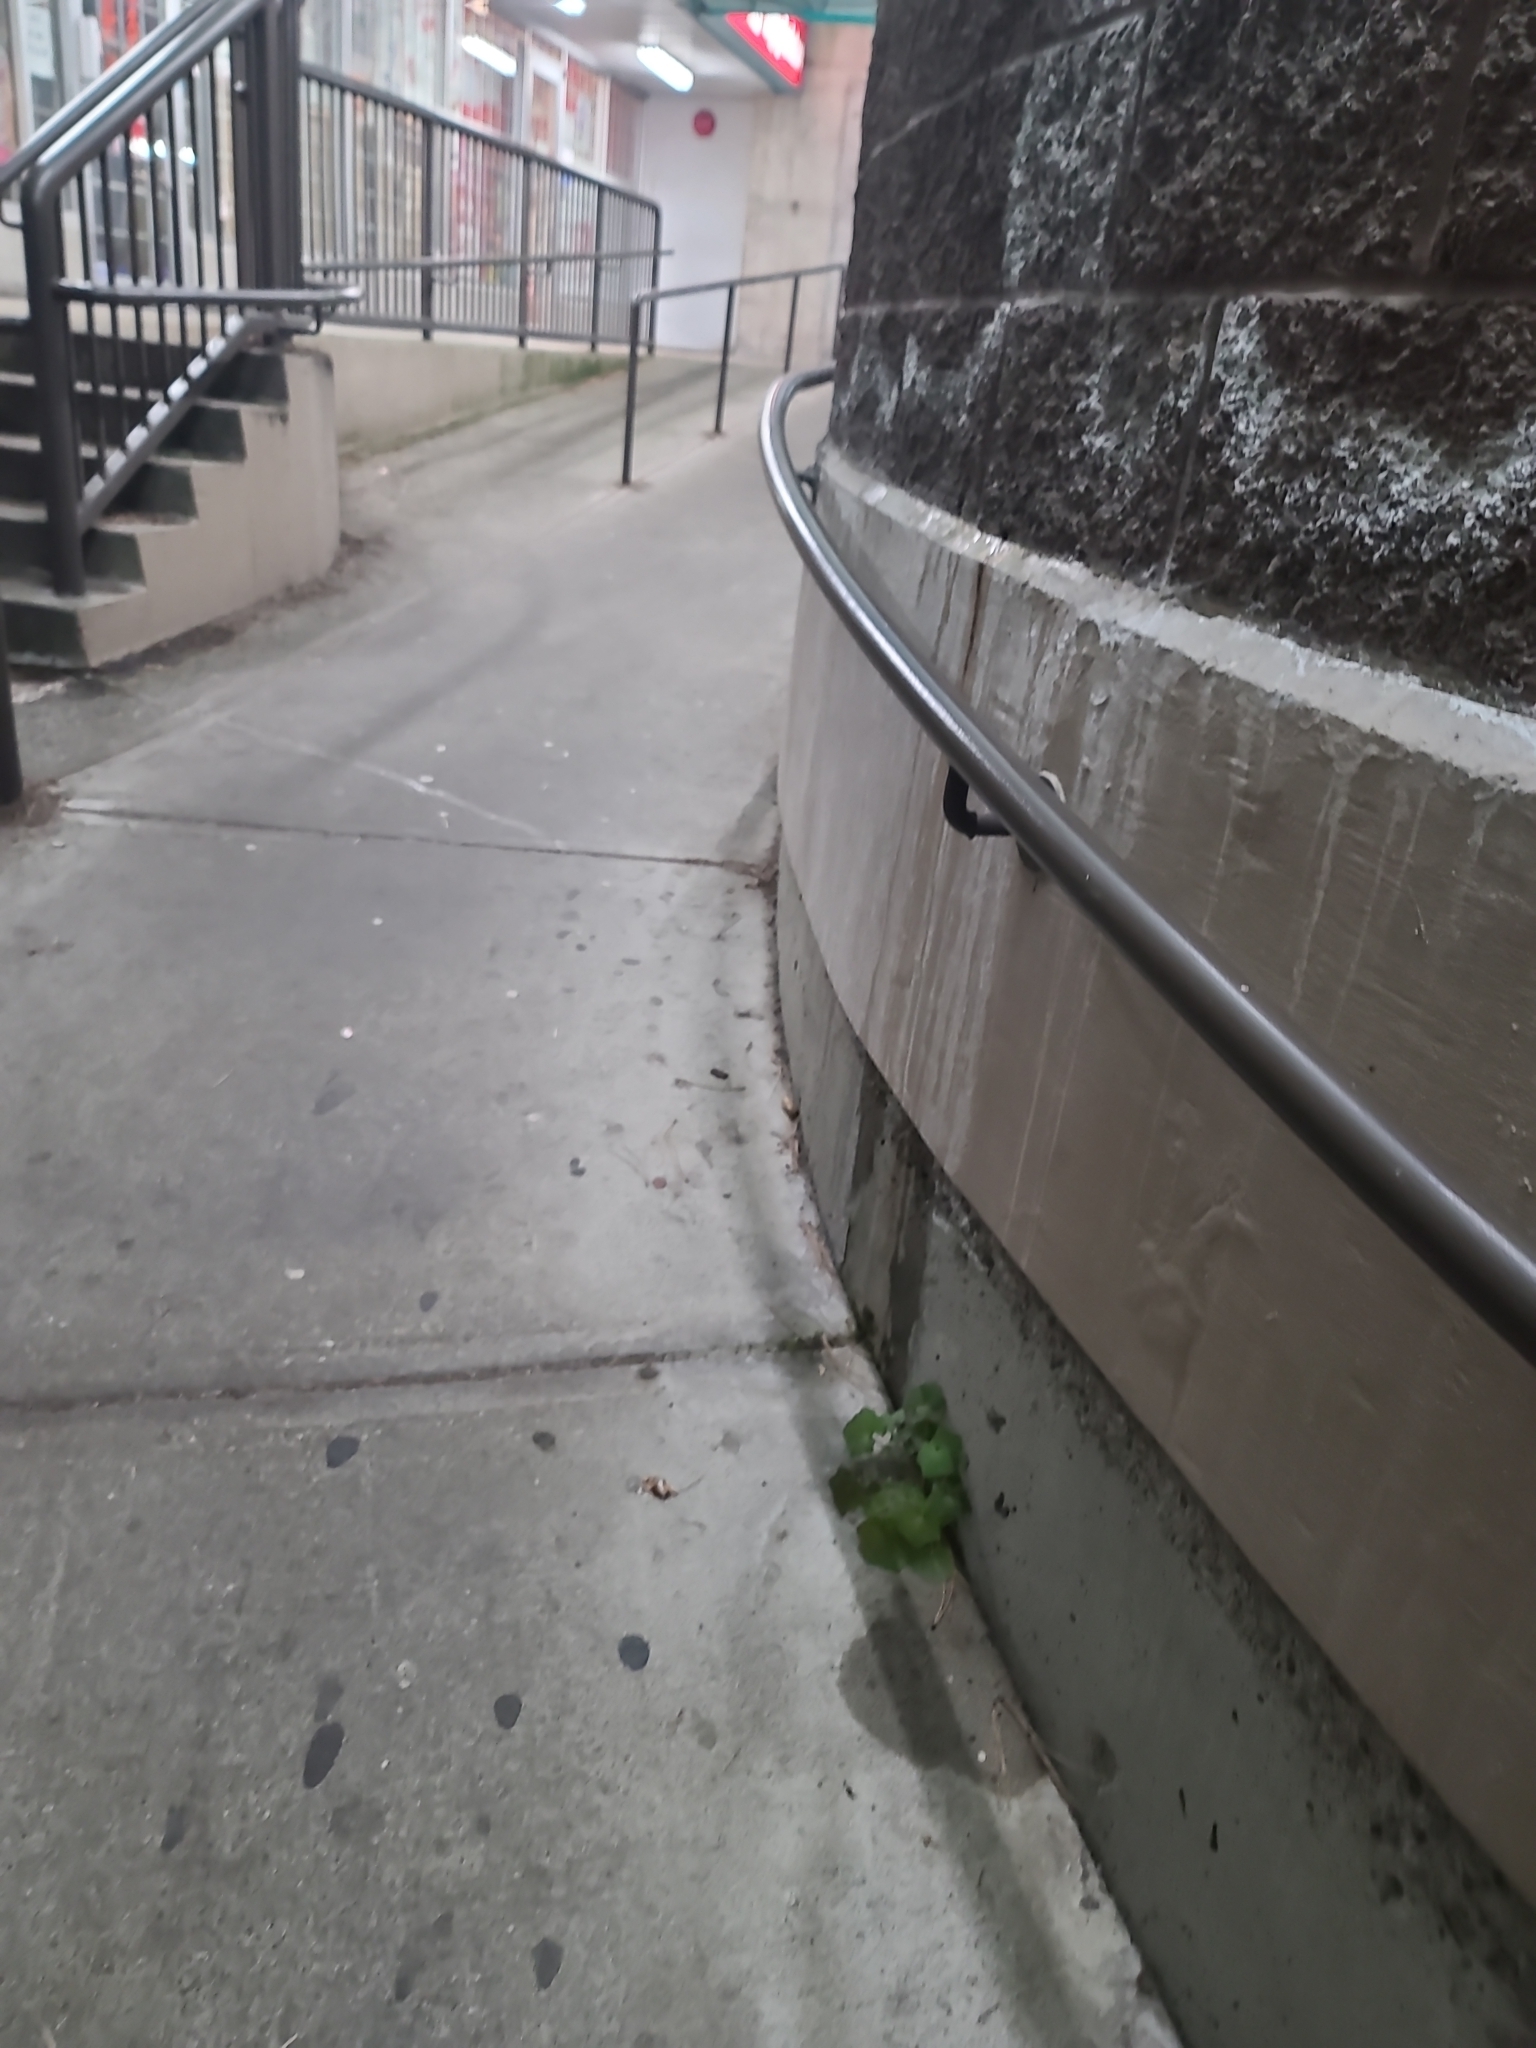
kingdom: Plantae
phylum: Tracheophyta
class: Magnoliopsida
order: Asterales
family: Asteraceae
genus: Mycelis
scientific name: Mycelis muralis
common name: Wall lettuce
